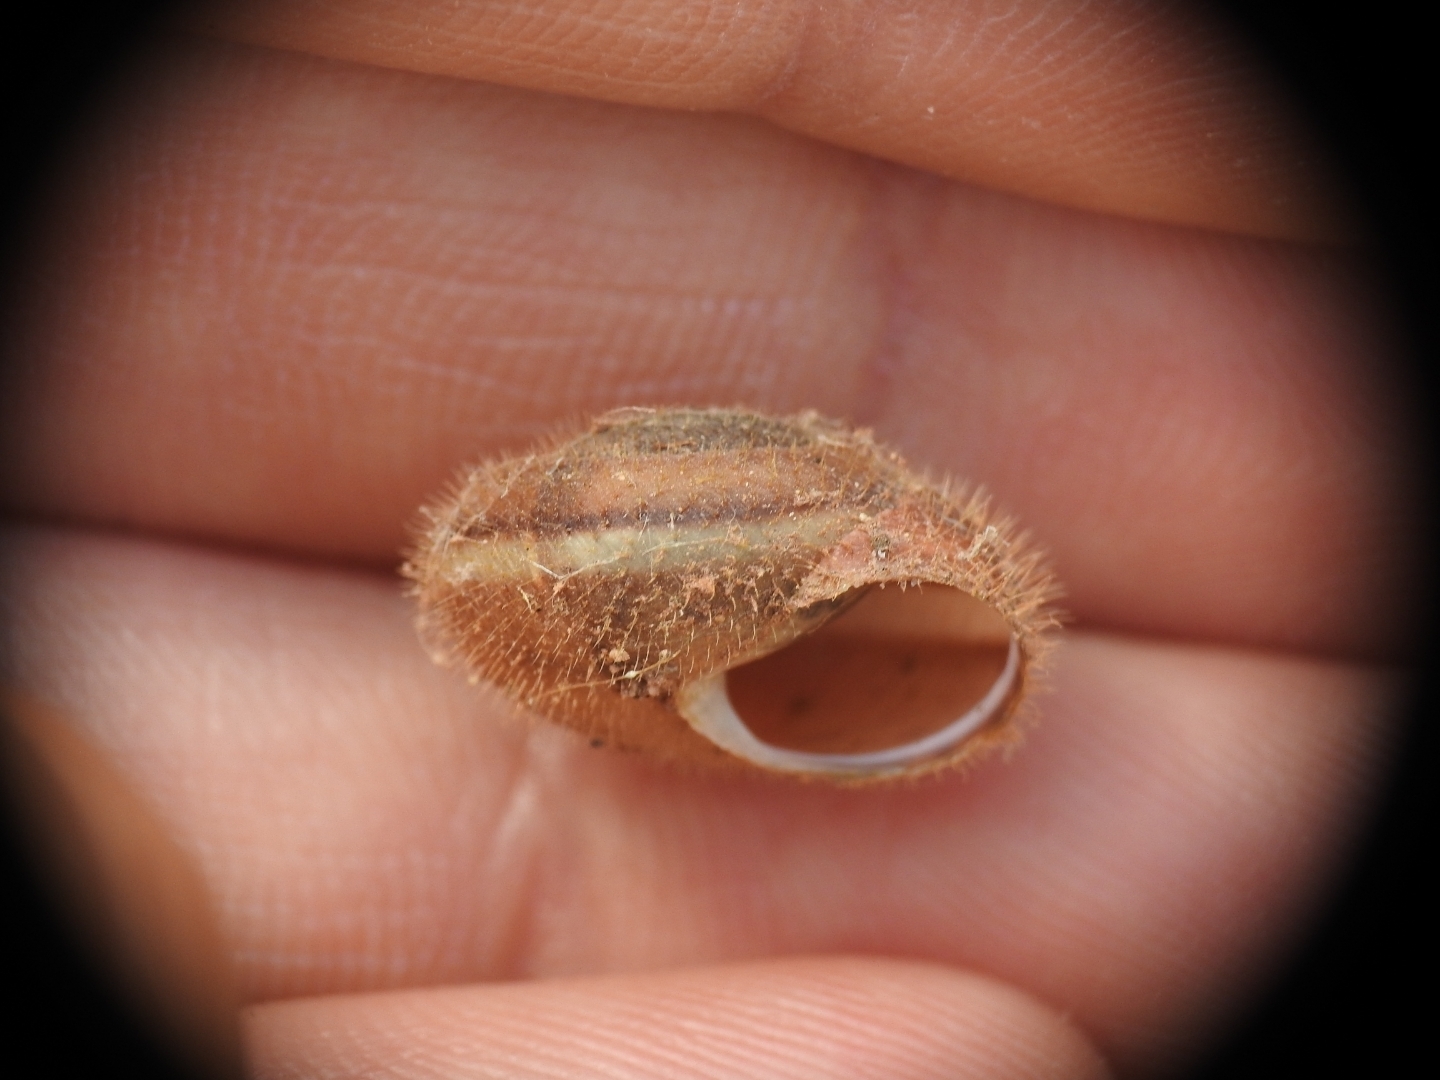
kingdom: Animalia
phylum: Mollusca
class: Gastropoda
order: Stylommatophora
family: Hygromiidae
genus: Metafruticicola
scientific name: Metafruticicola pellita
